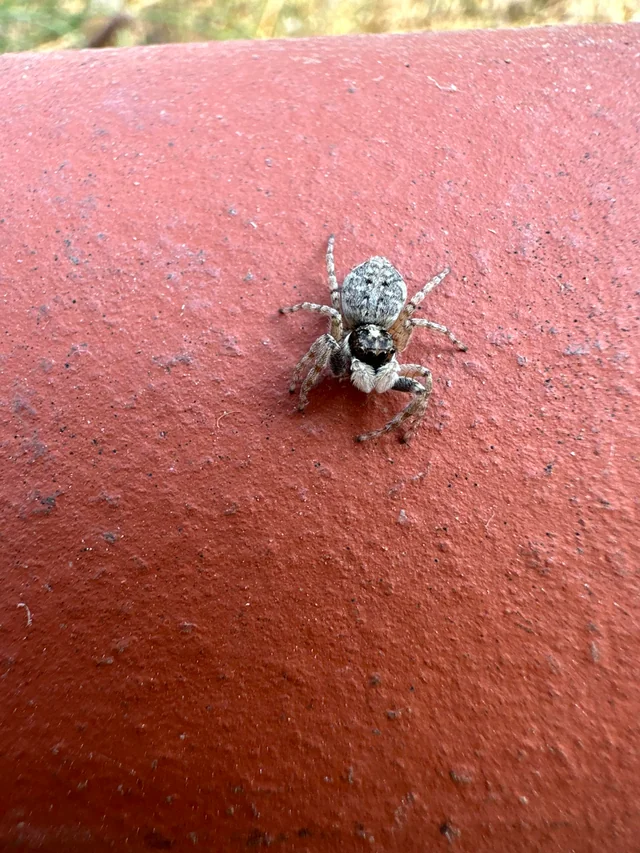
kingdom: Animalia
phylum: Arthropoda
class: Arachnida
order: Araneae
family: Salticidae
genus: Menemerus
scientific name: Menemerus semilimbatus
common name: Jumping spider
